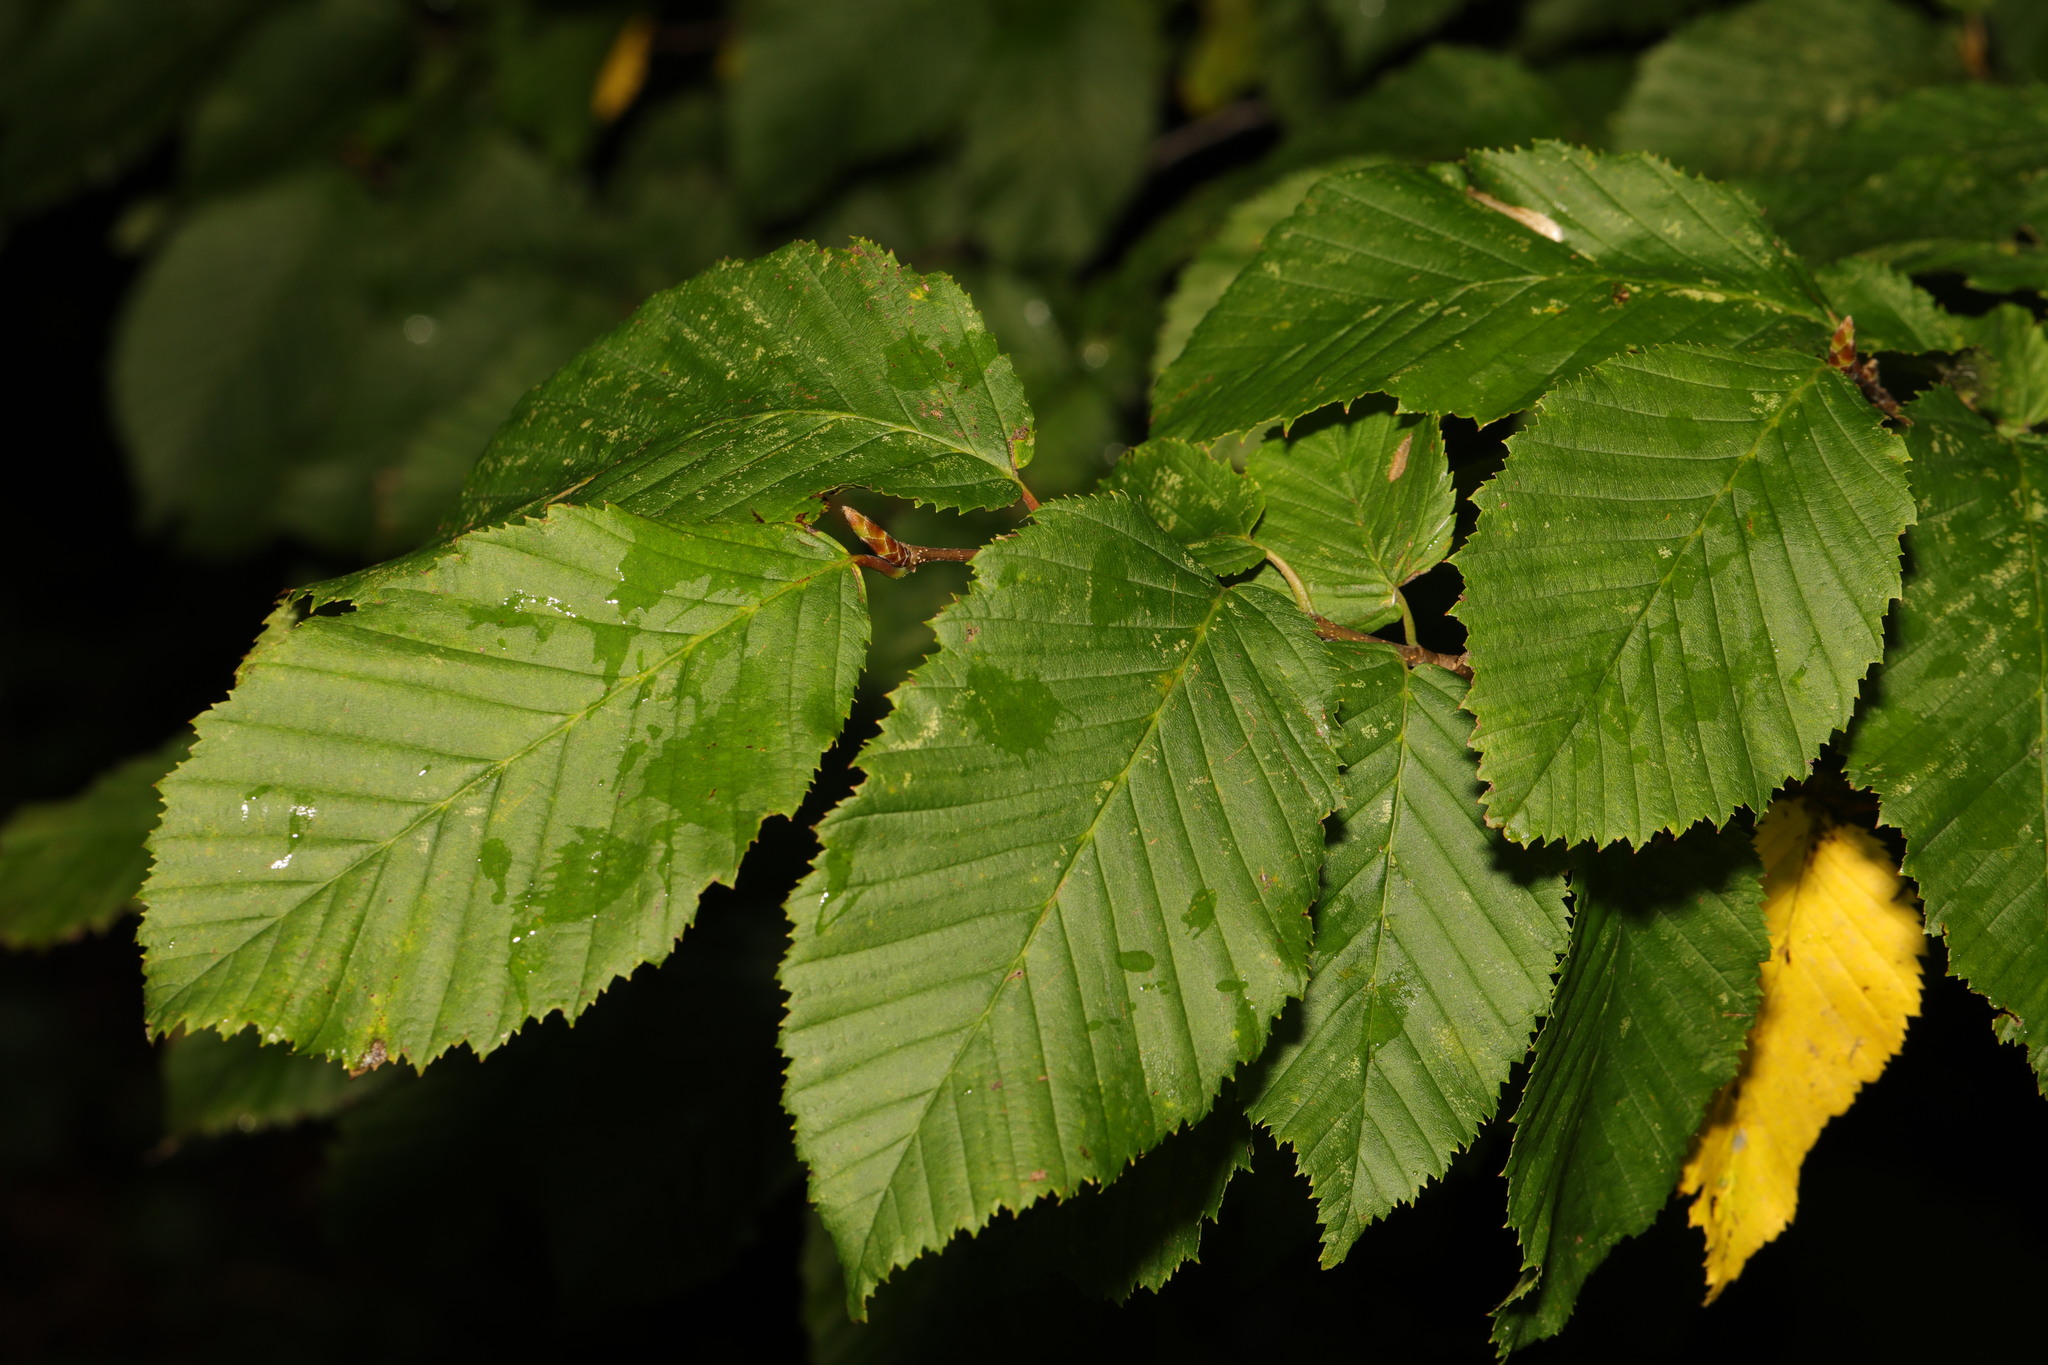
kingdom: Plantae
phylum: Tracheophyta
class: Magnoliopsida
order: Fagales
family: Betulaceae
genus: Carpinus
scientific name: Carpinus betulus
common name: Hornbeam
